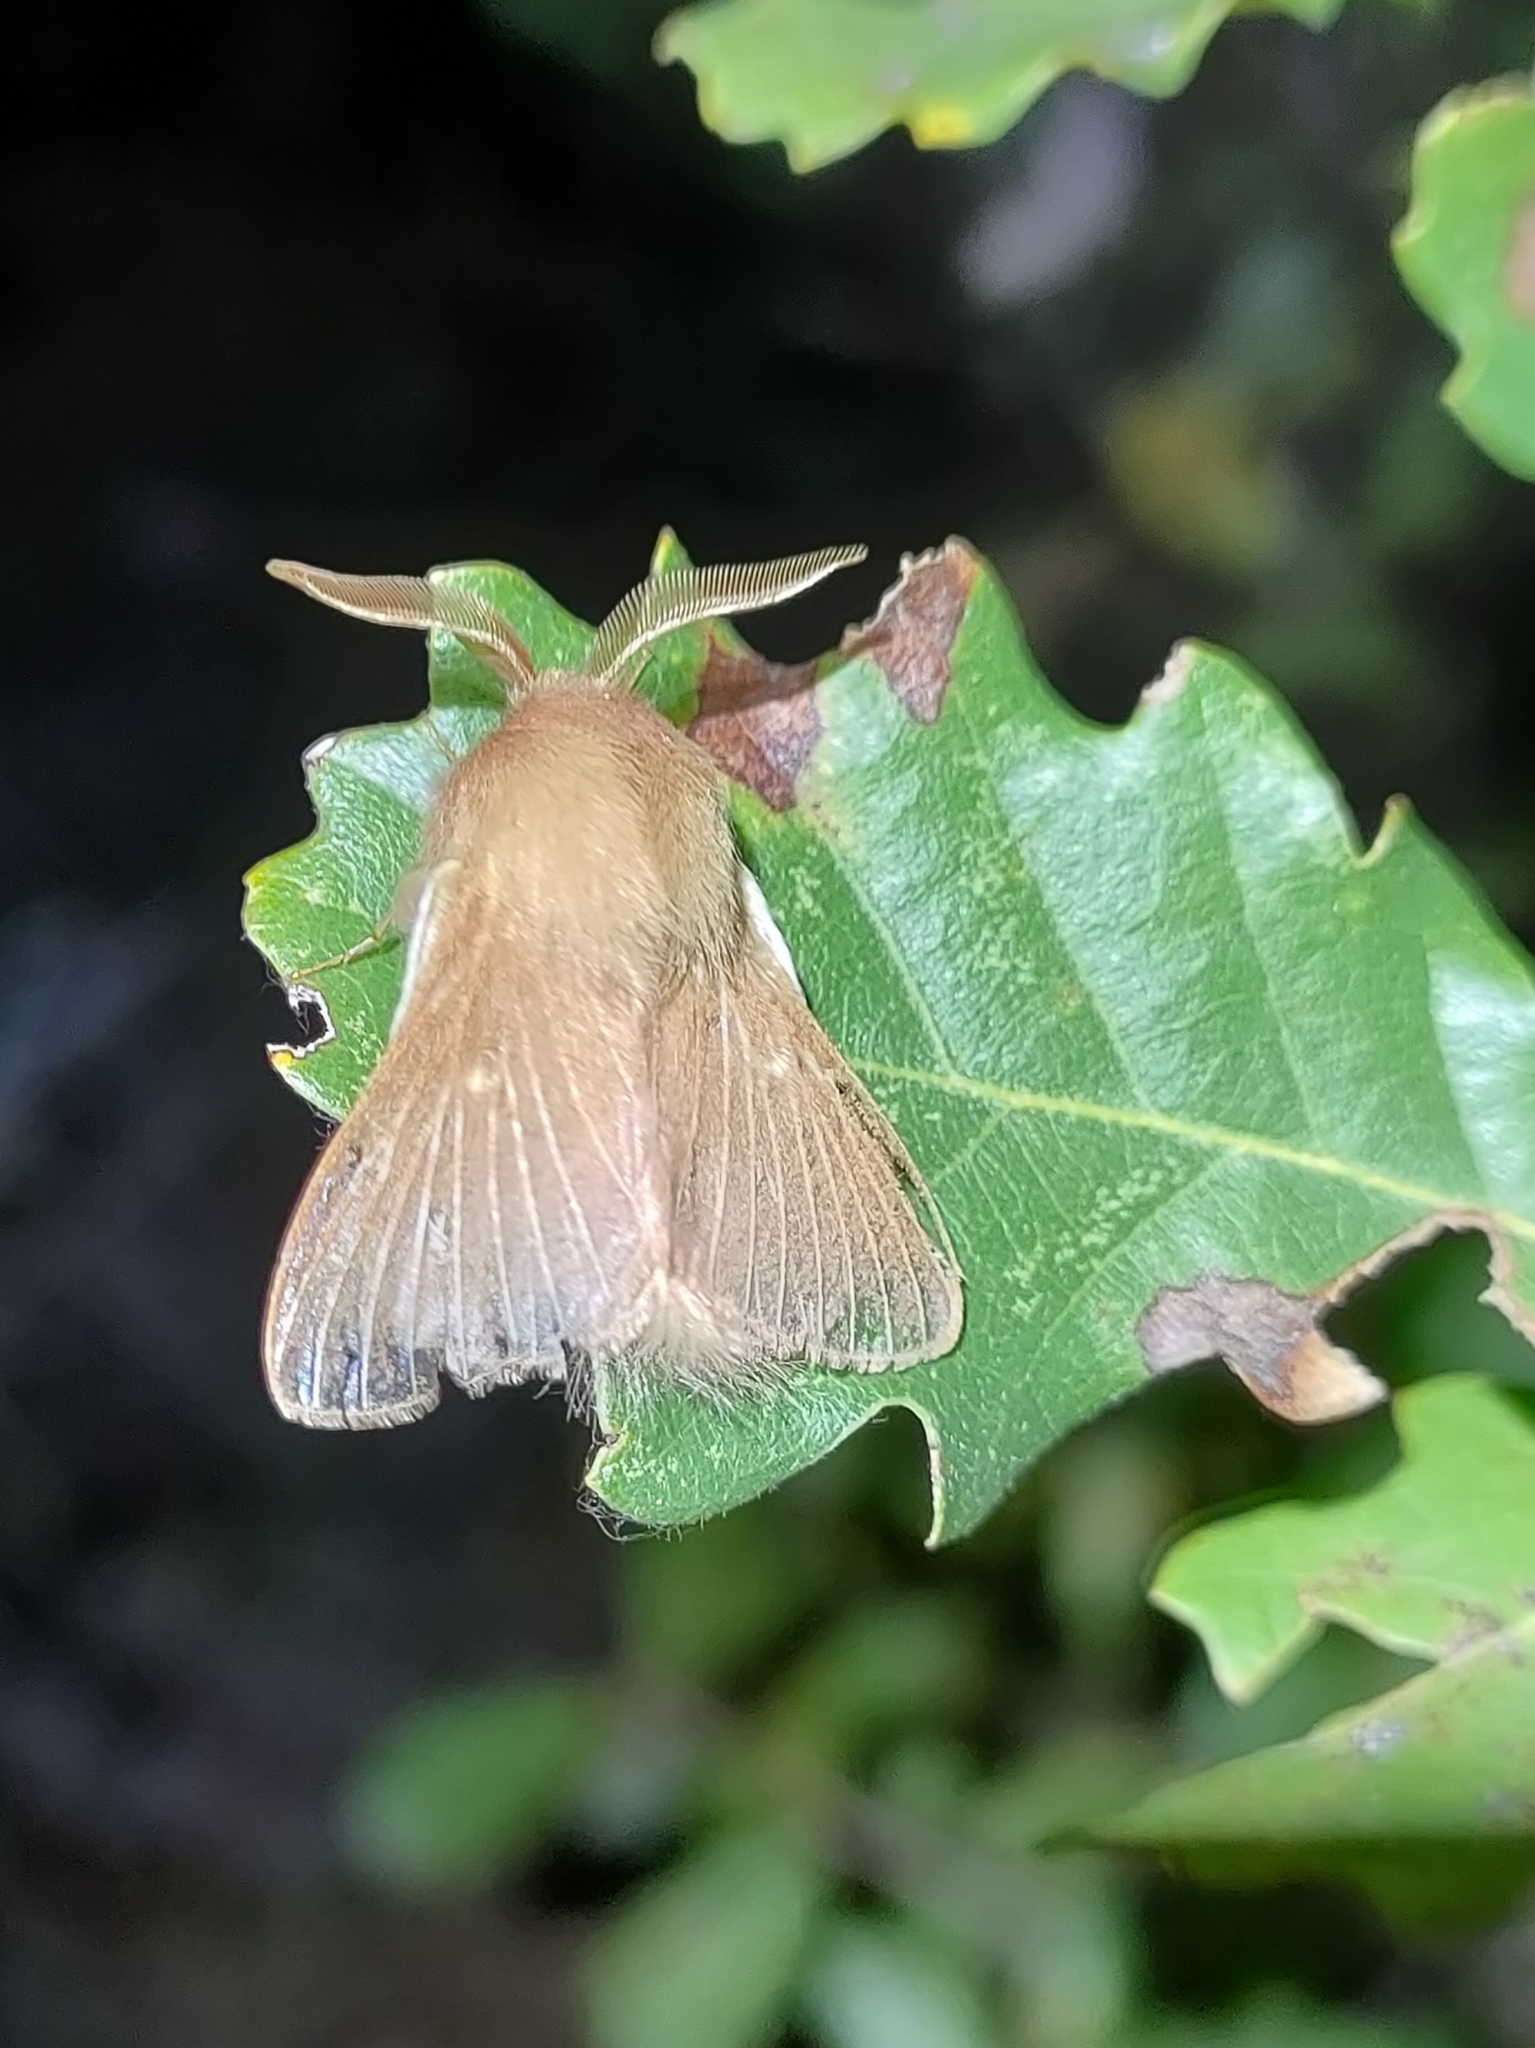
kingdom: Animalia
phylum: Arthropoda
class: Insecta
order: Lepidoptera
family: Lasiocampidae
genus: Eriogaster
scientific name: Eriogaster rimicola
